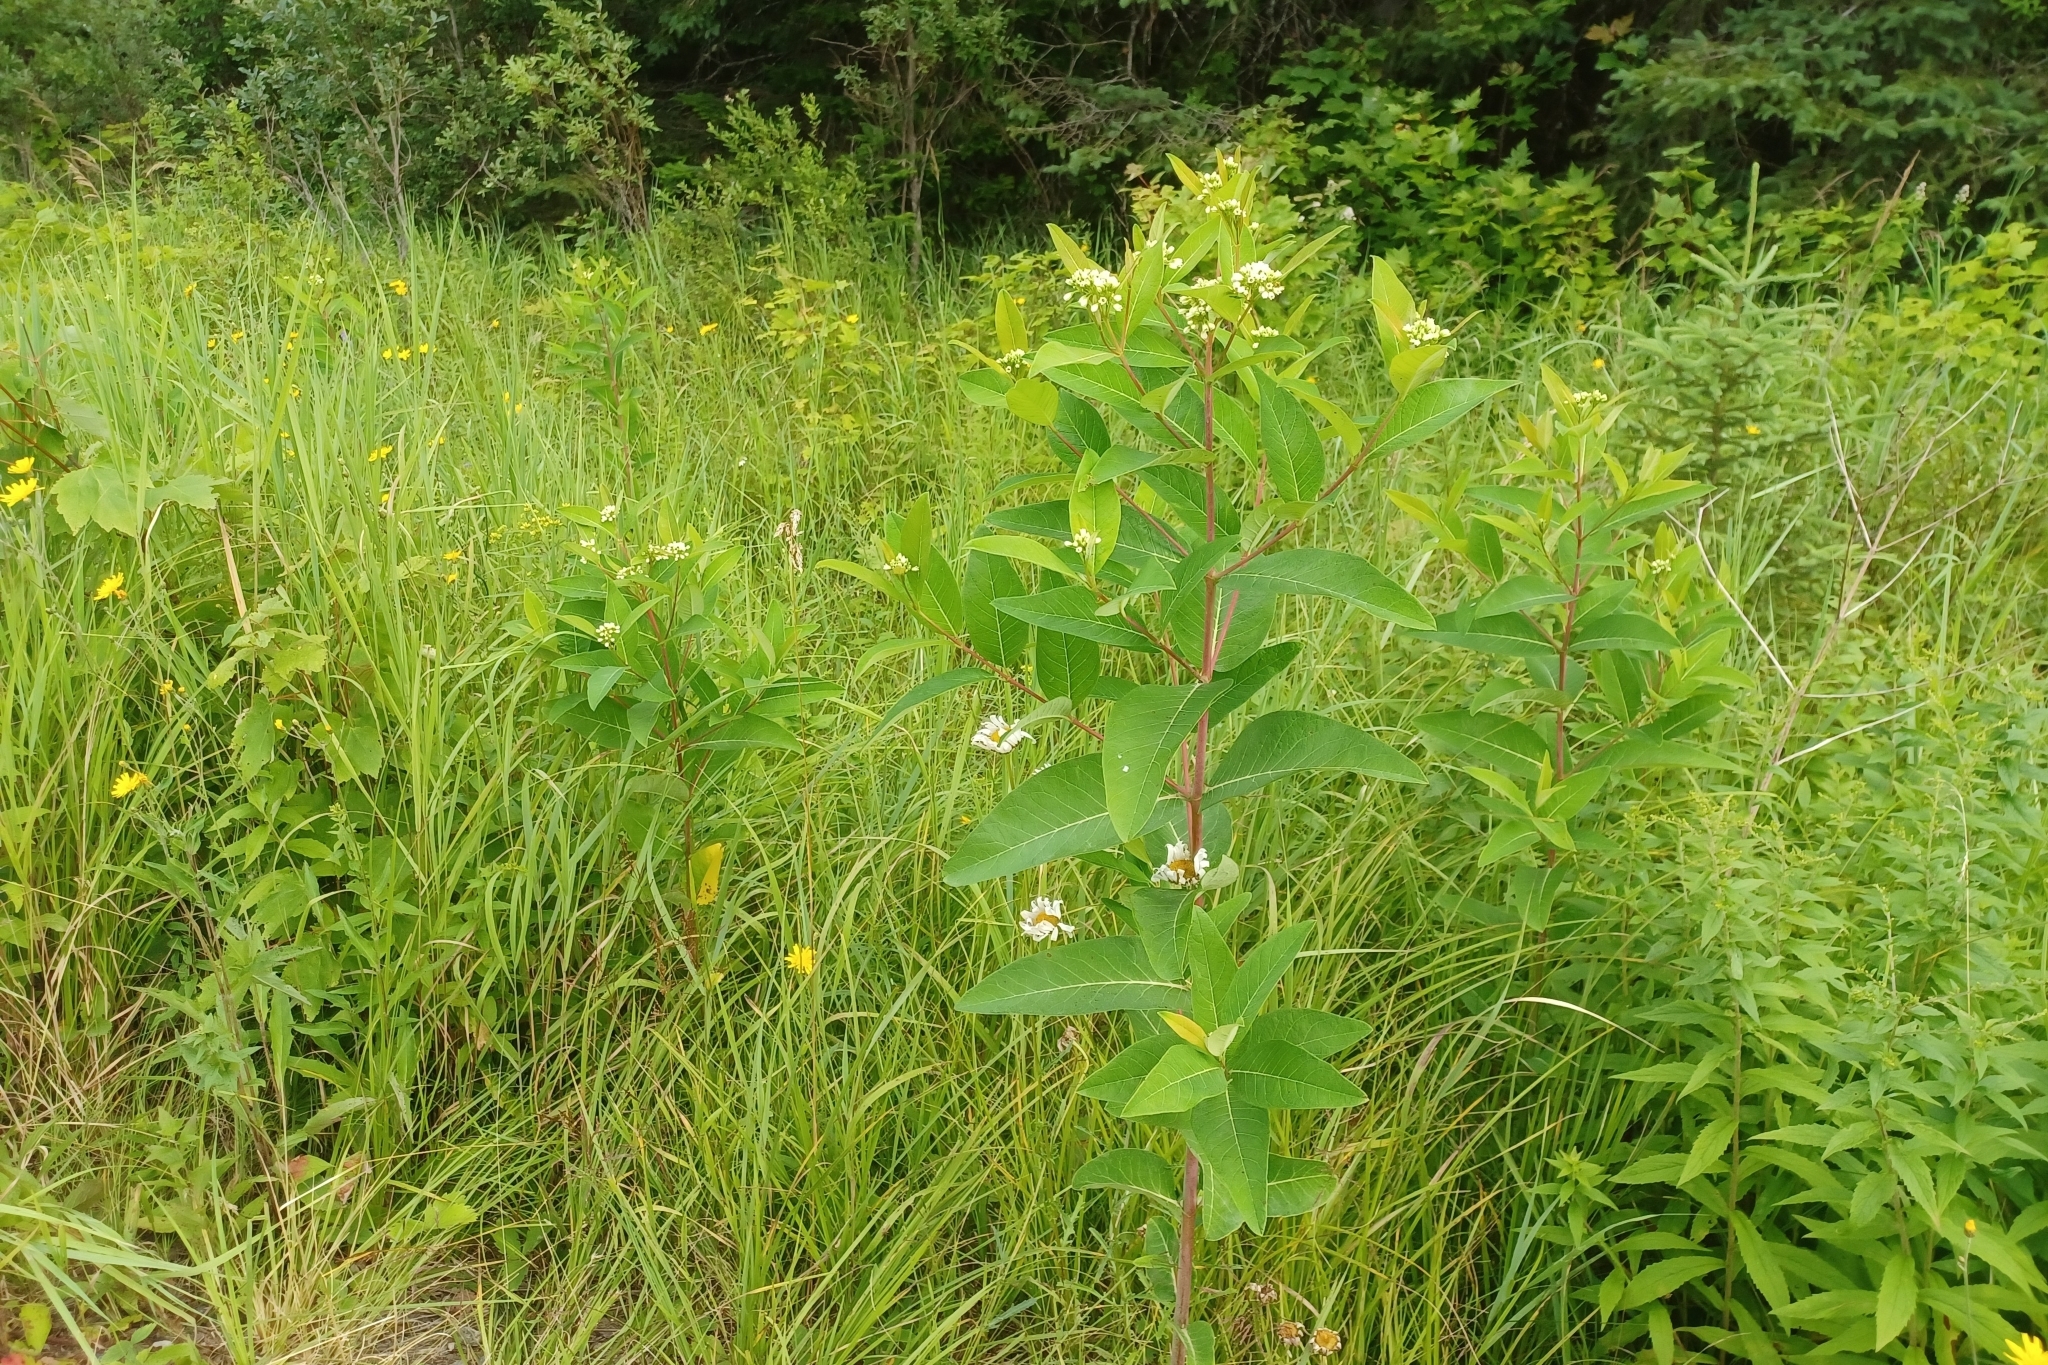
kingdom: Plantae
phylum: Tracheophyta
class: Magnoliopsida
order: Gentianales
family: Apocynaceae
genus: Apocynum
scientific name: Apocynum cannabinum
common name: Hemp dogbane
